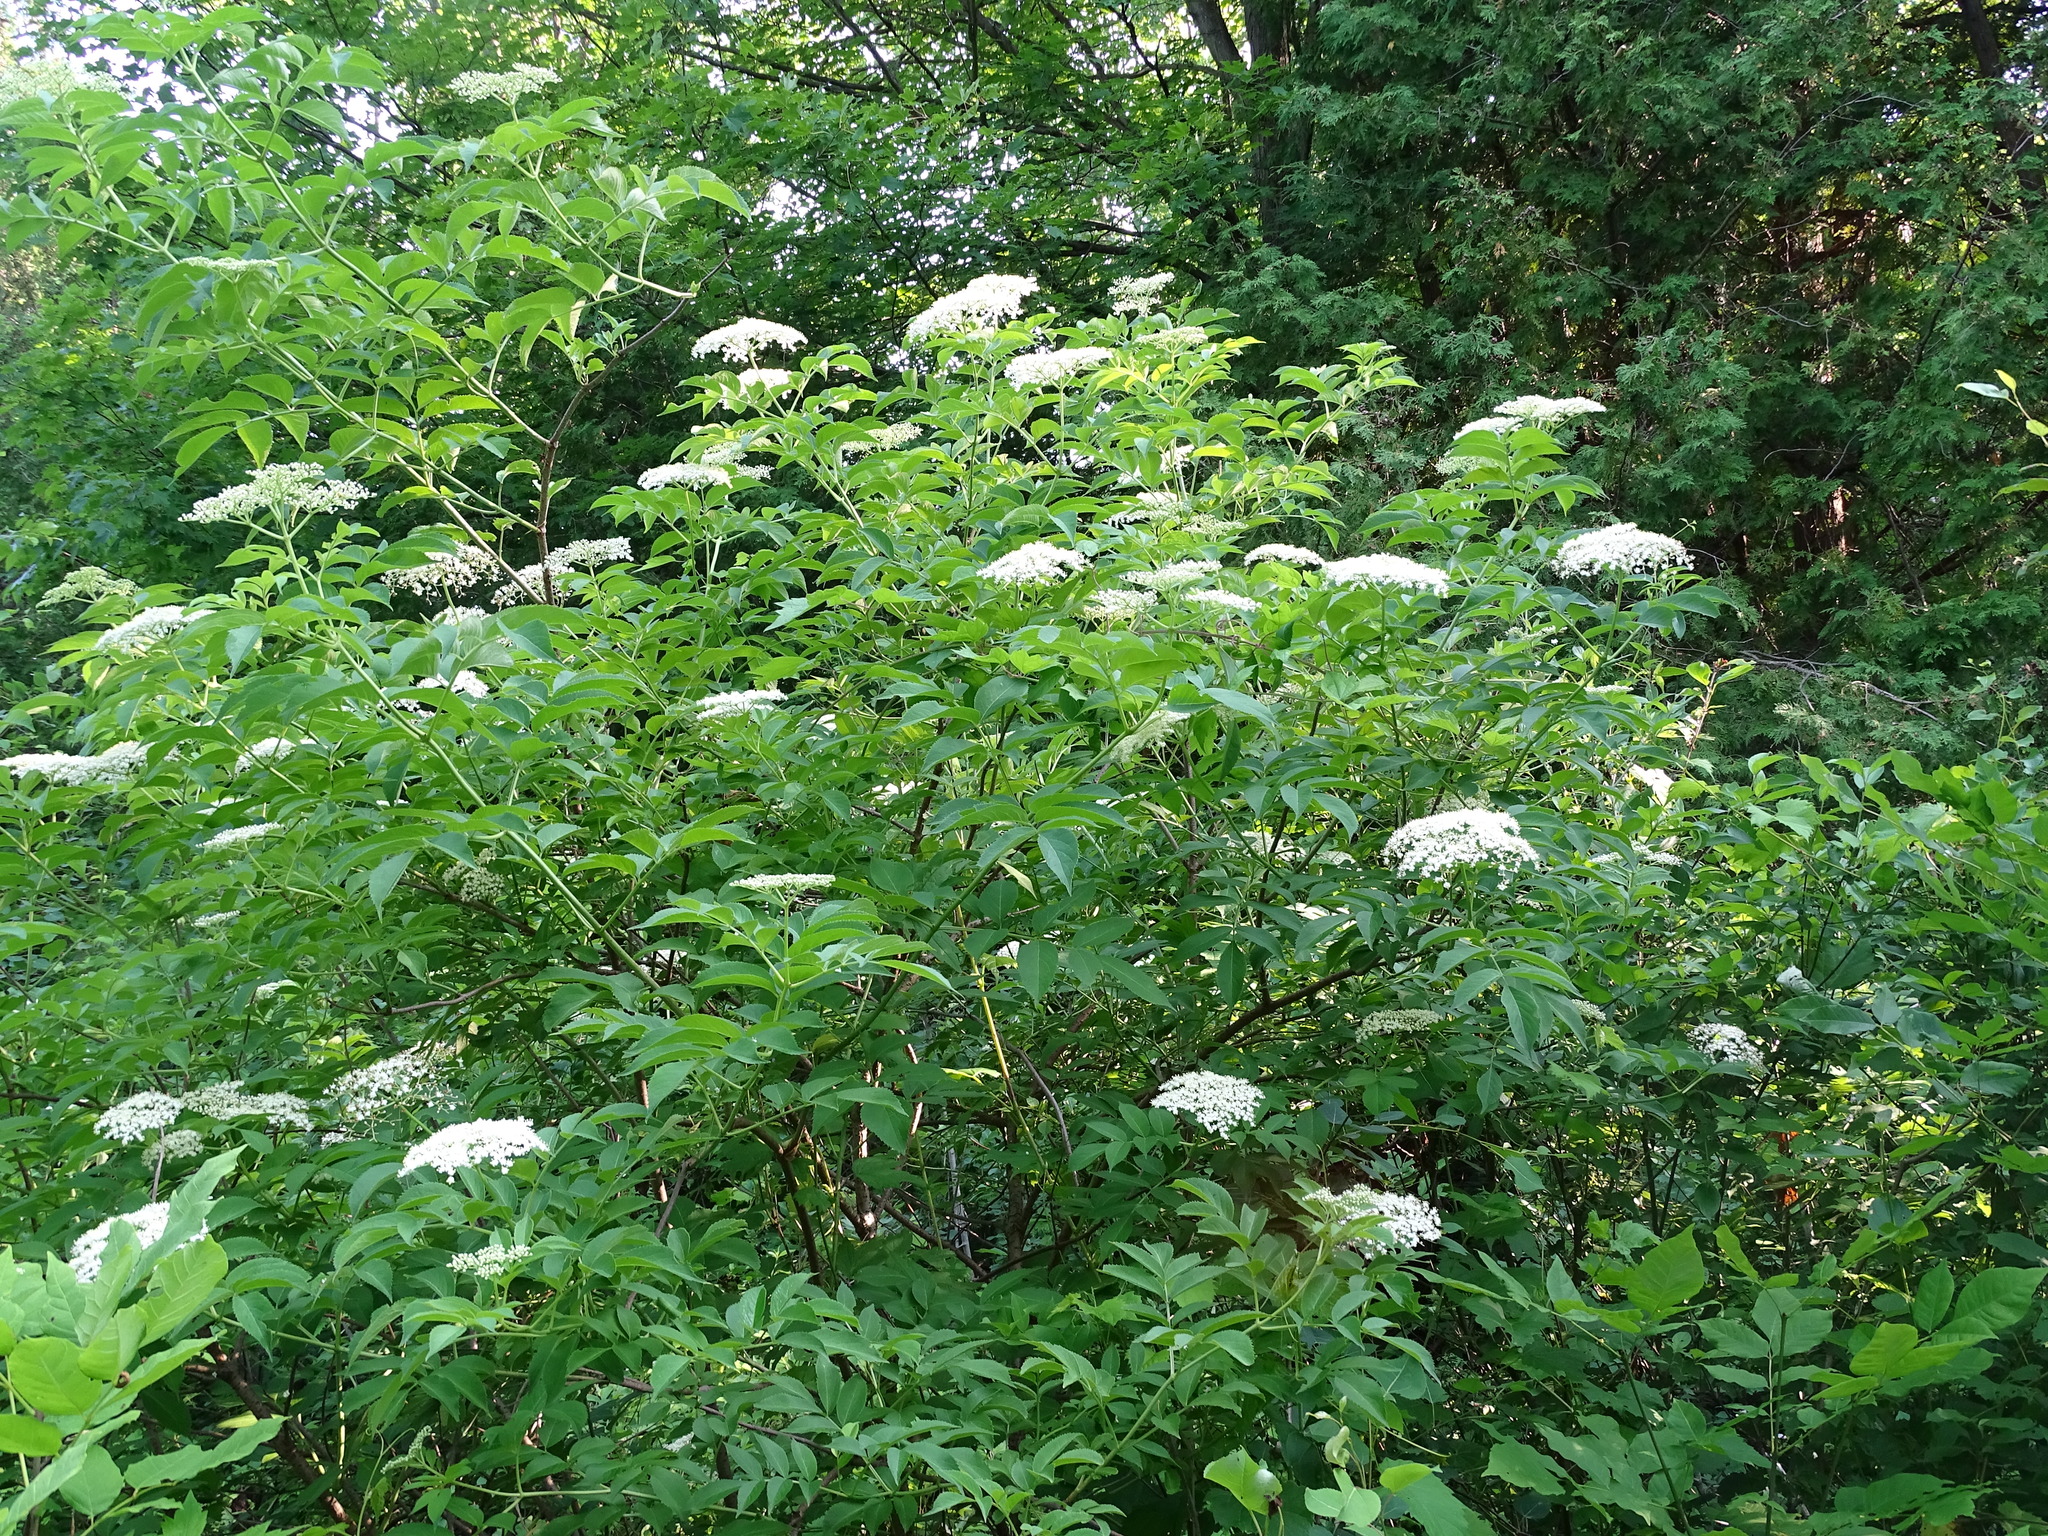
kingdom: Plantae
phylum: Tracheophyta
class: Magnoliopsida
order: Dipsacales
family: Viburnaceae
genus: Sambucus
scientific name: Sambucus canadensis
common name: American elder
